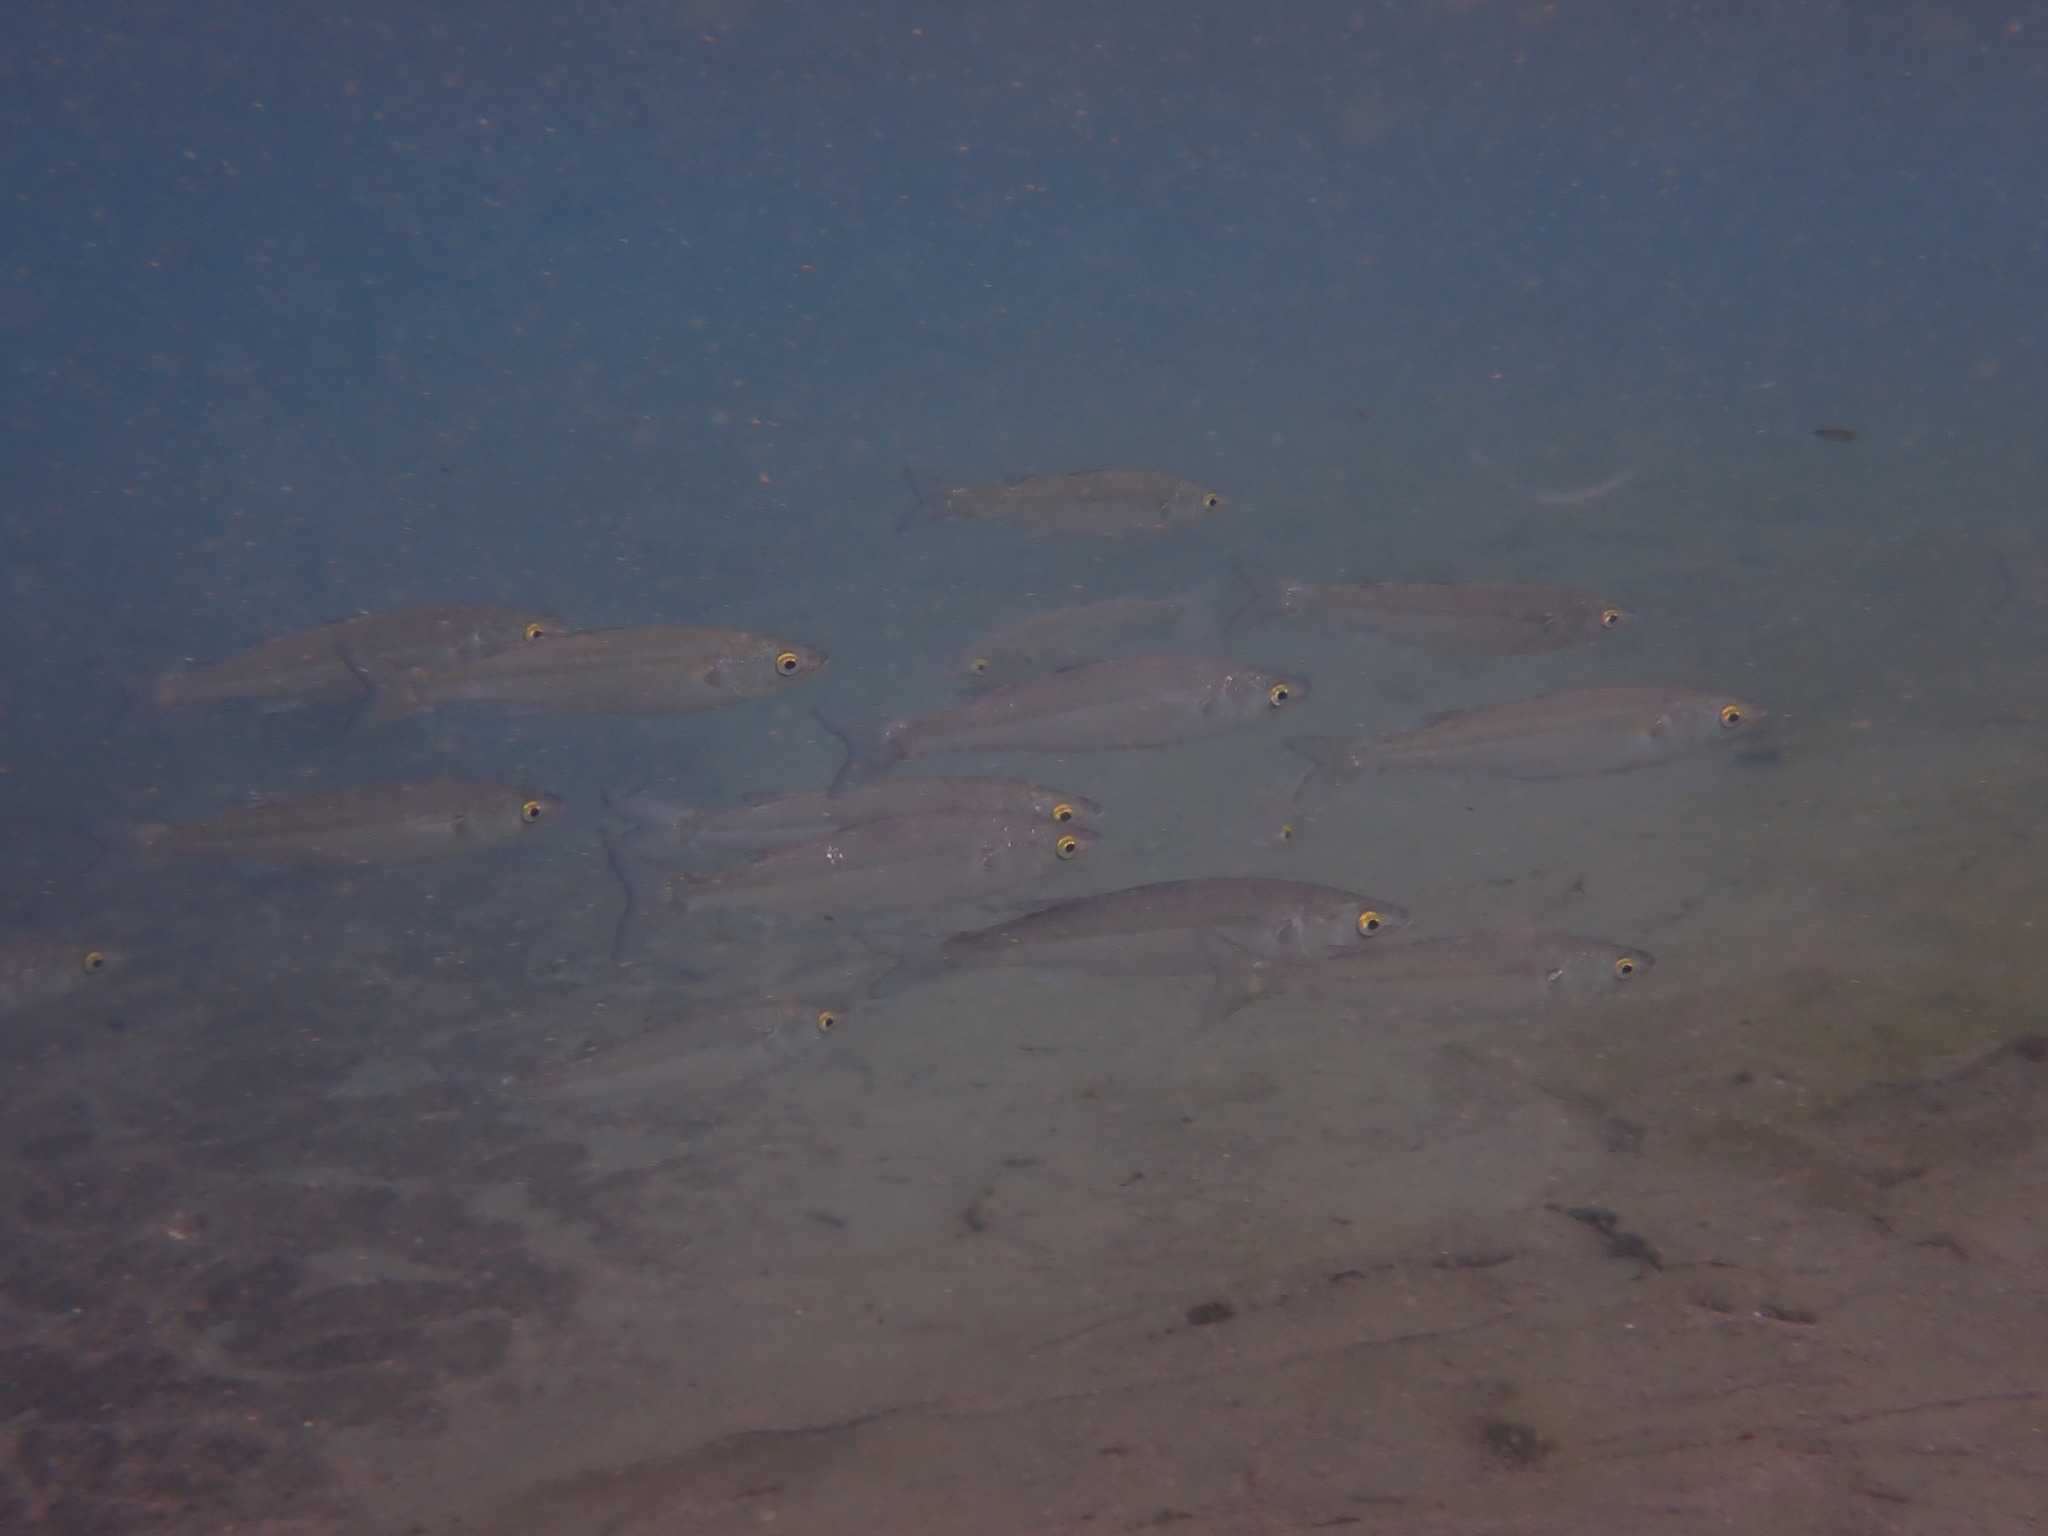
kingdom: Animalia
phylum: Chordata
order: Mugiliformes
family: Mugilidae
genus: Aldrichetta
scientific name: Aldrichetta forsteri
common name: Yellow-eye mullet
